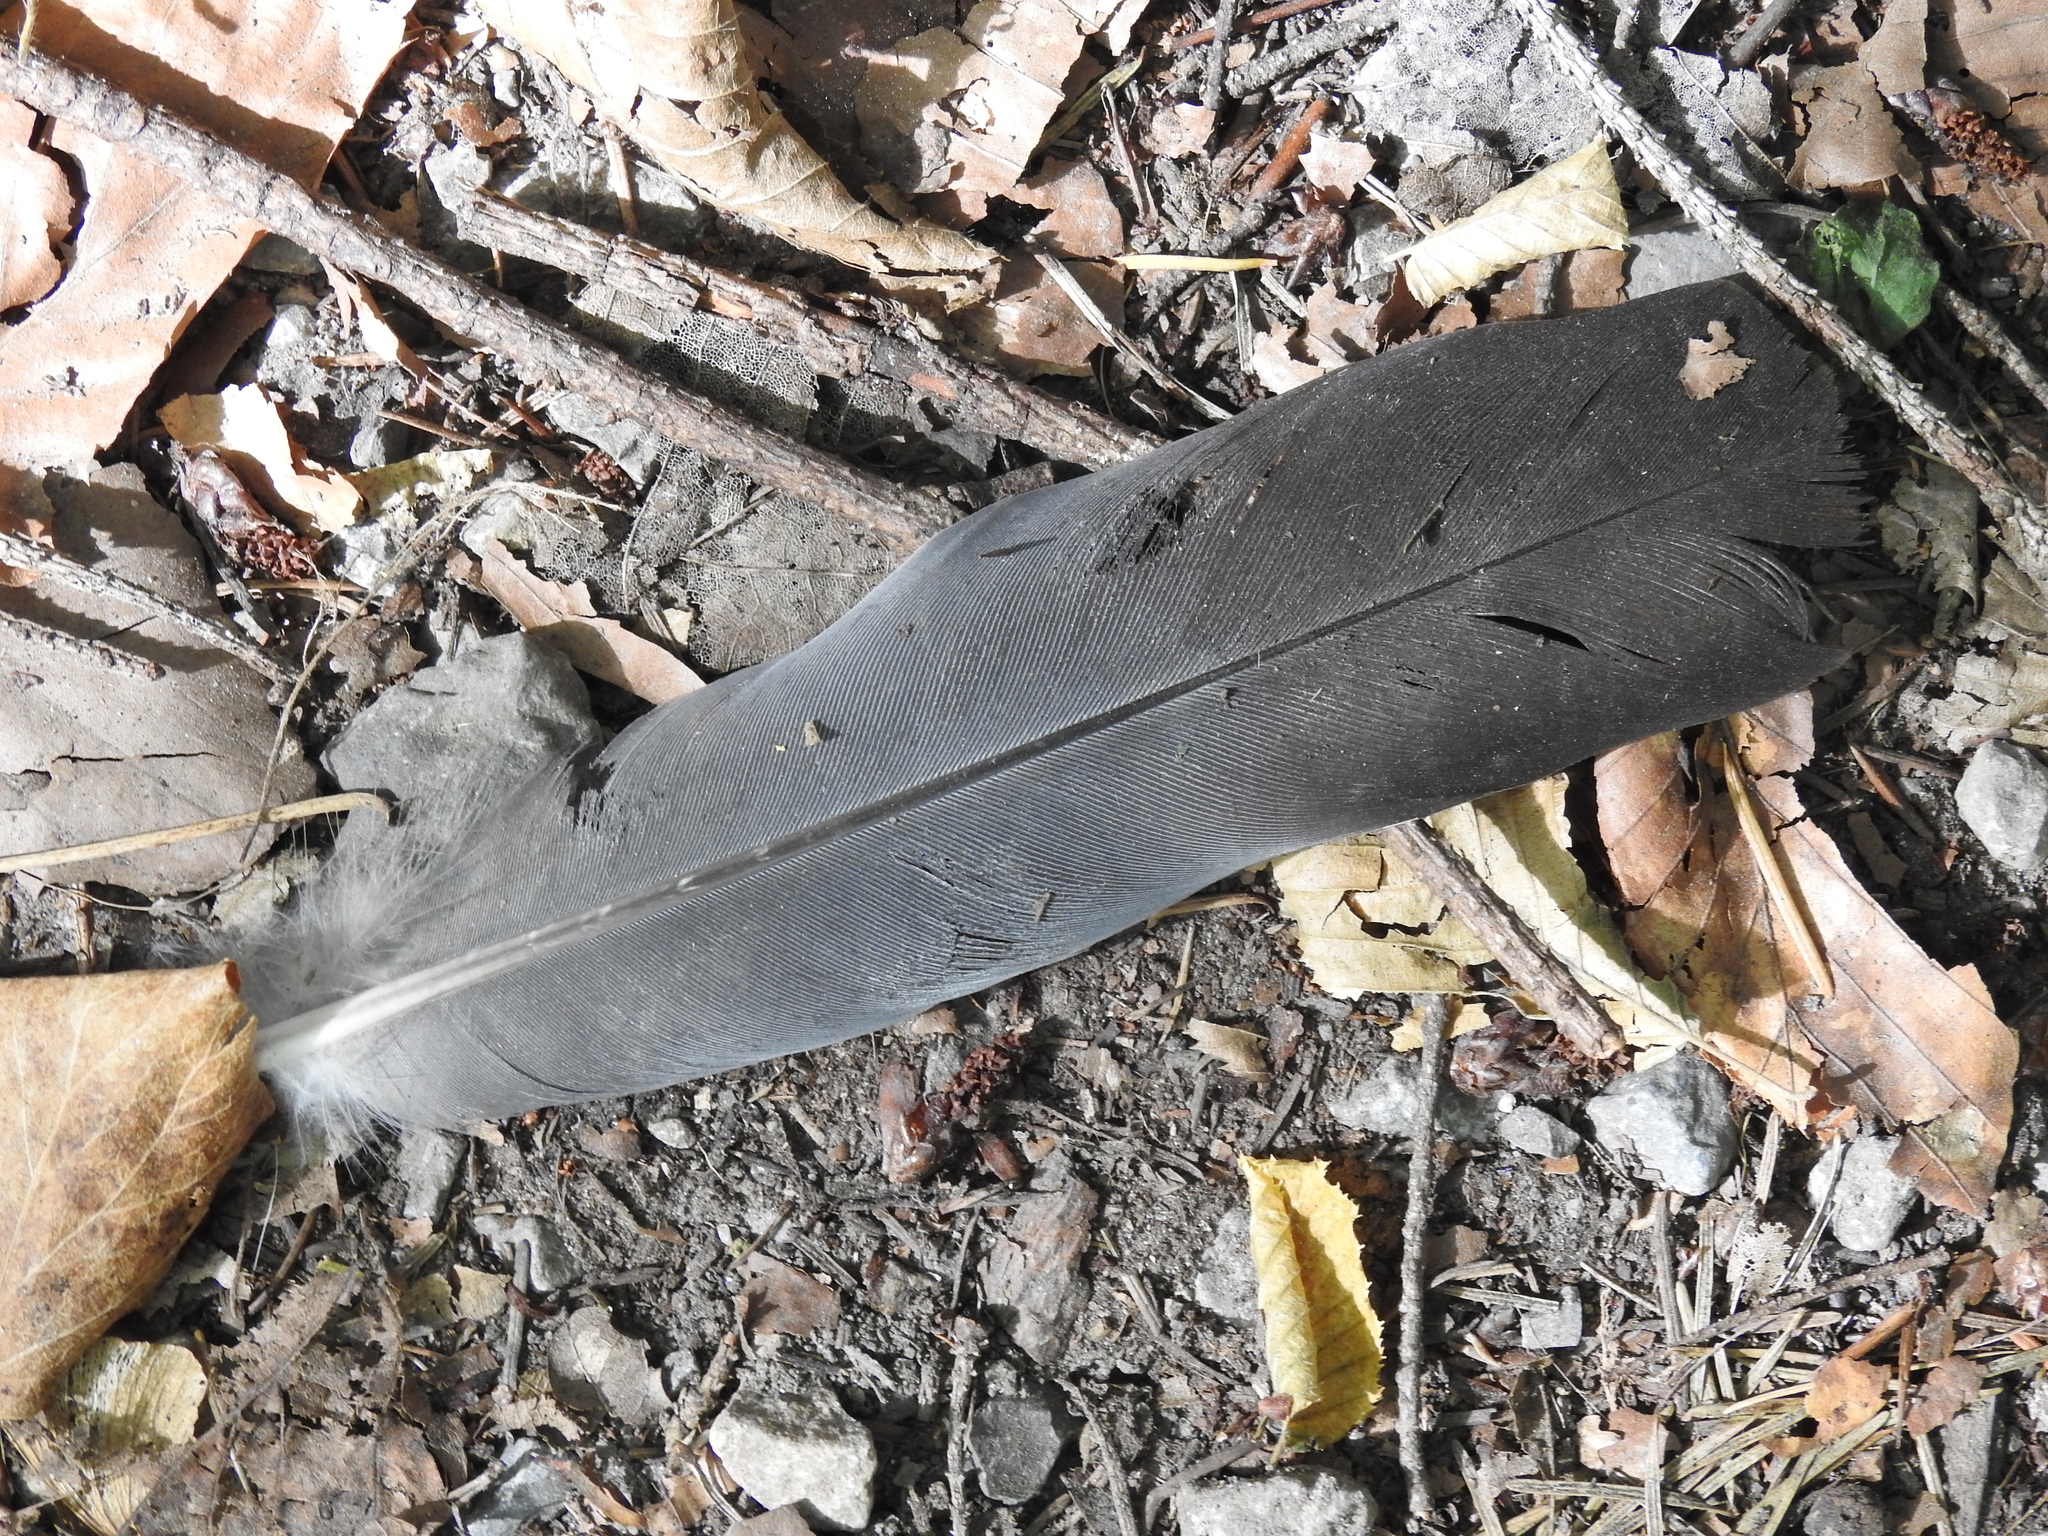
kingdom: Animalia
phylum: Chordata
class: Aves
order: Columbiformes
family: Columbidae
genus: Columba
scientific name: Columba palumbus
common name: Common wood pigeon
